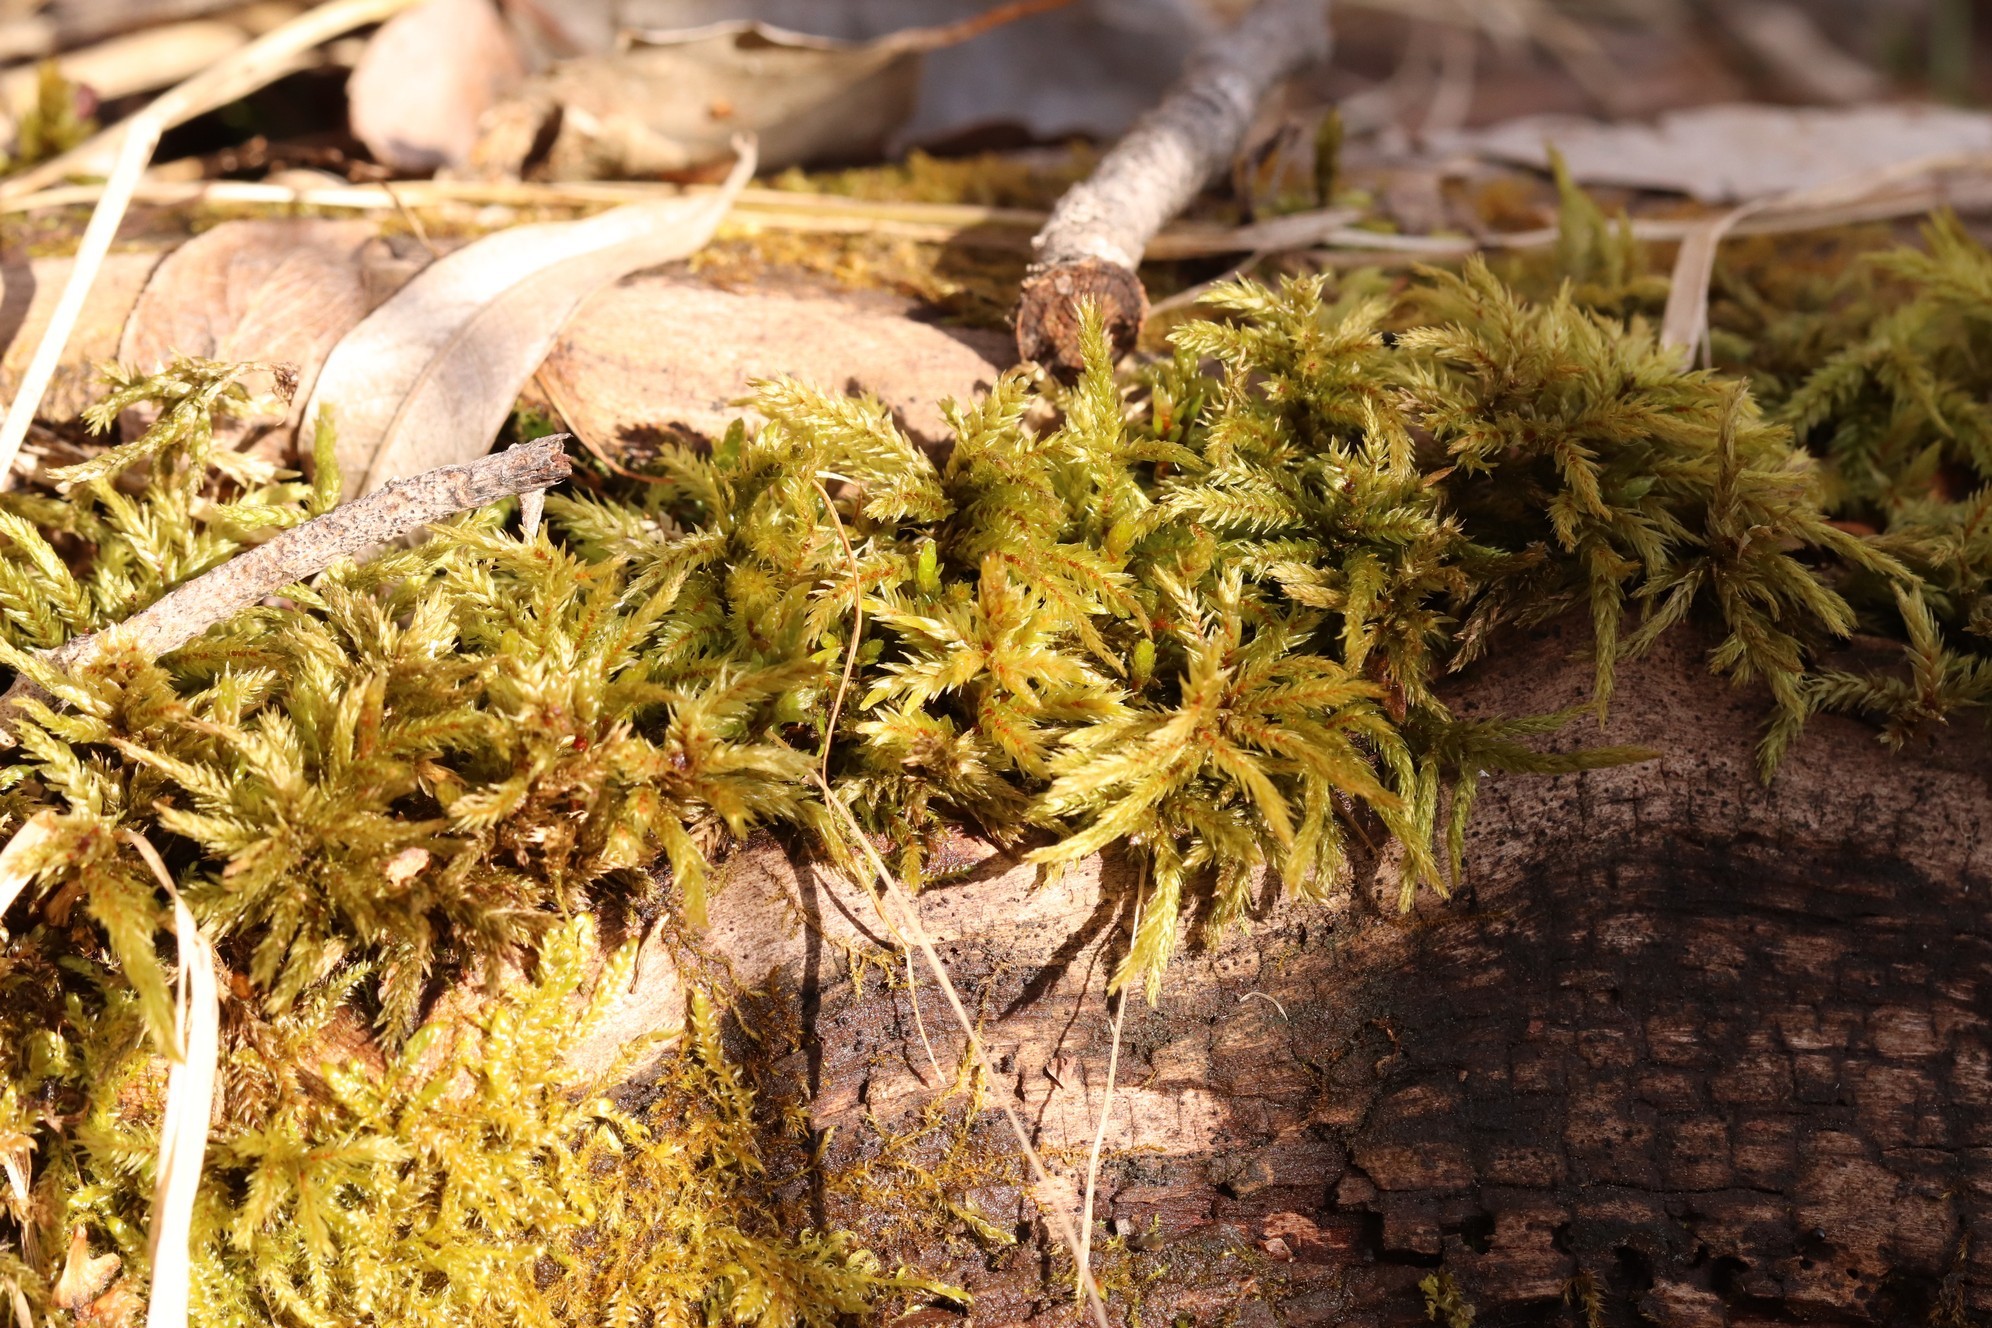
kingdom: Plantae
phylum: Bryophyta
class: Bryopsida
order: Hypnales
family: Climaciaceae
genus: Climacium
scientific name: Climacium dendroides
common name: Northern tree moss
